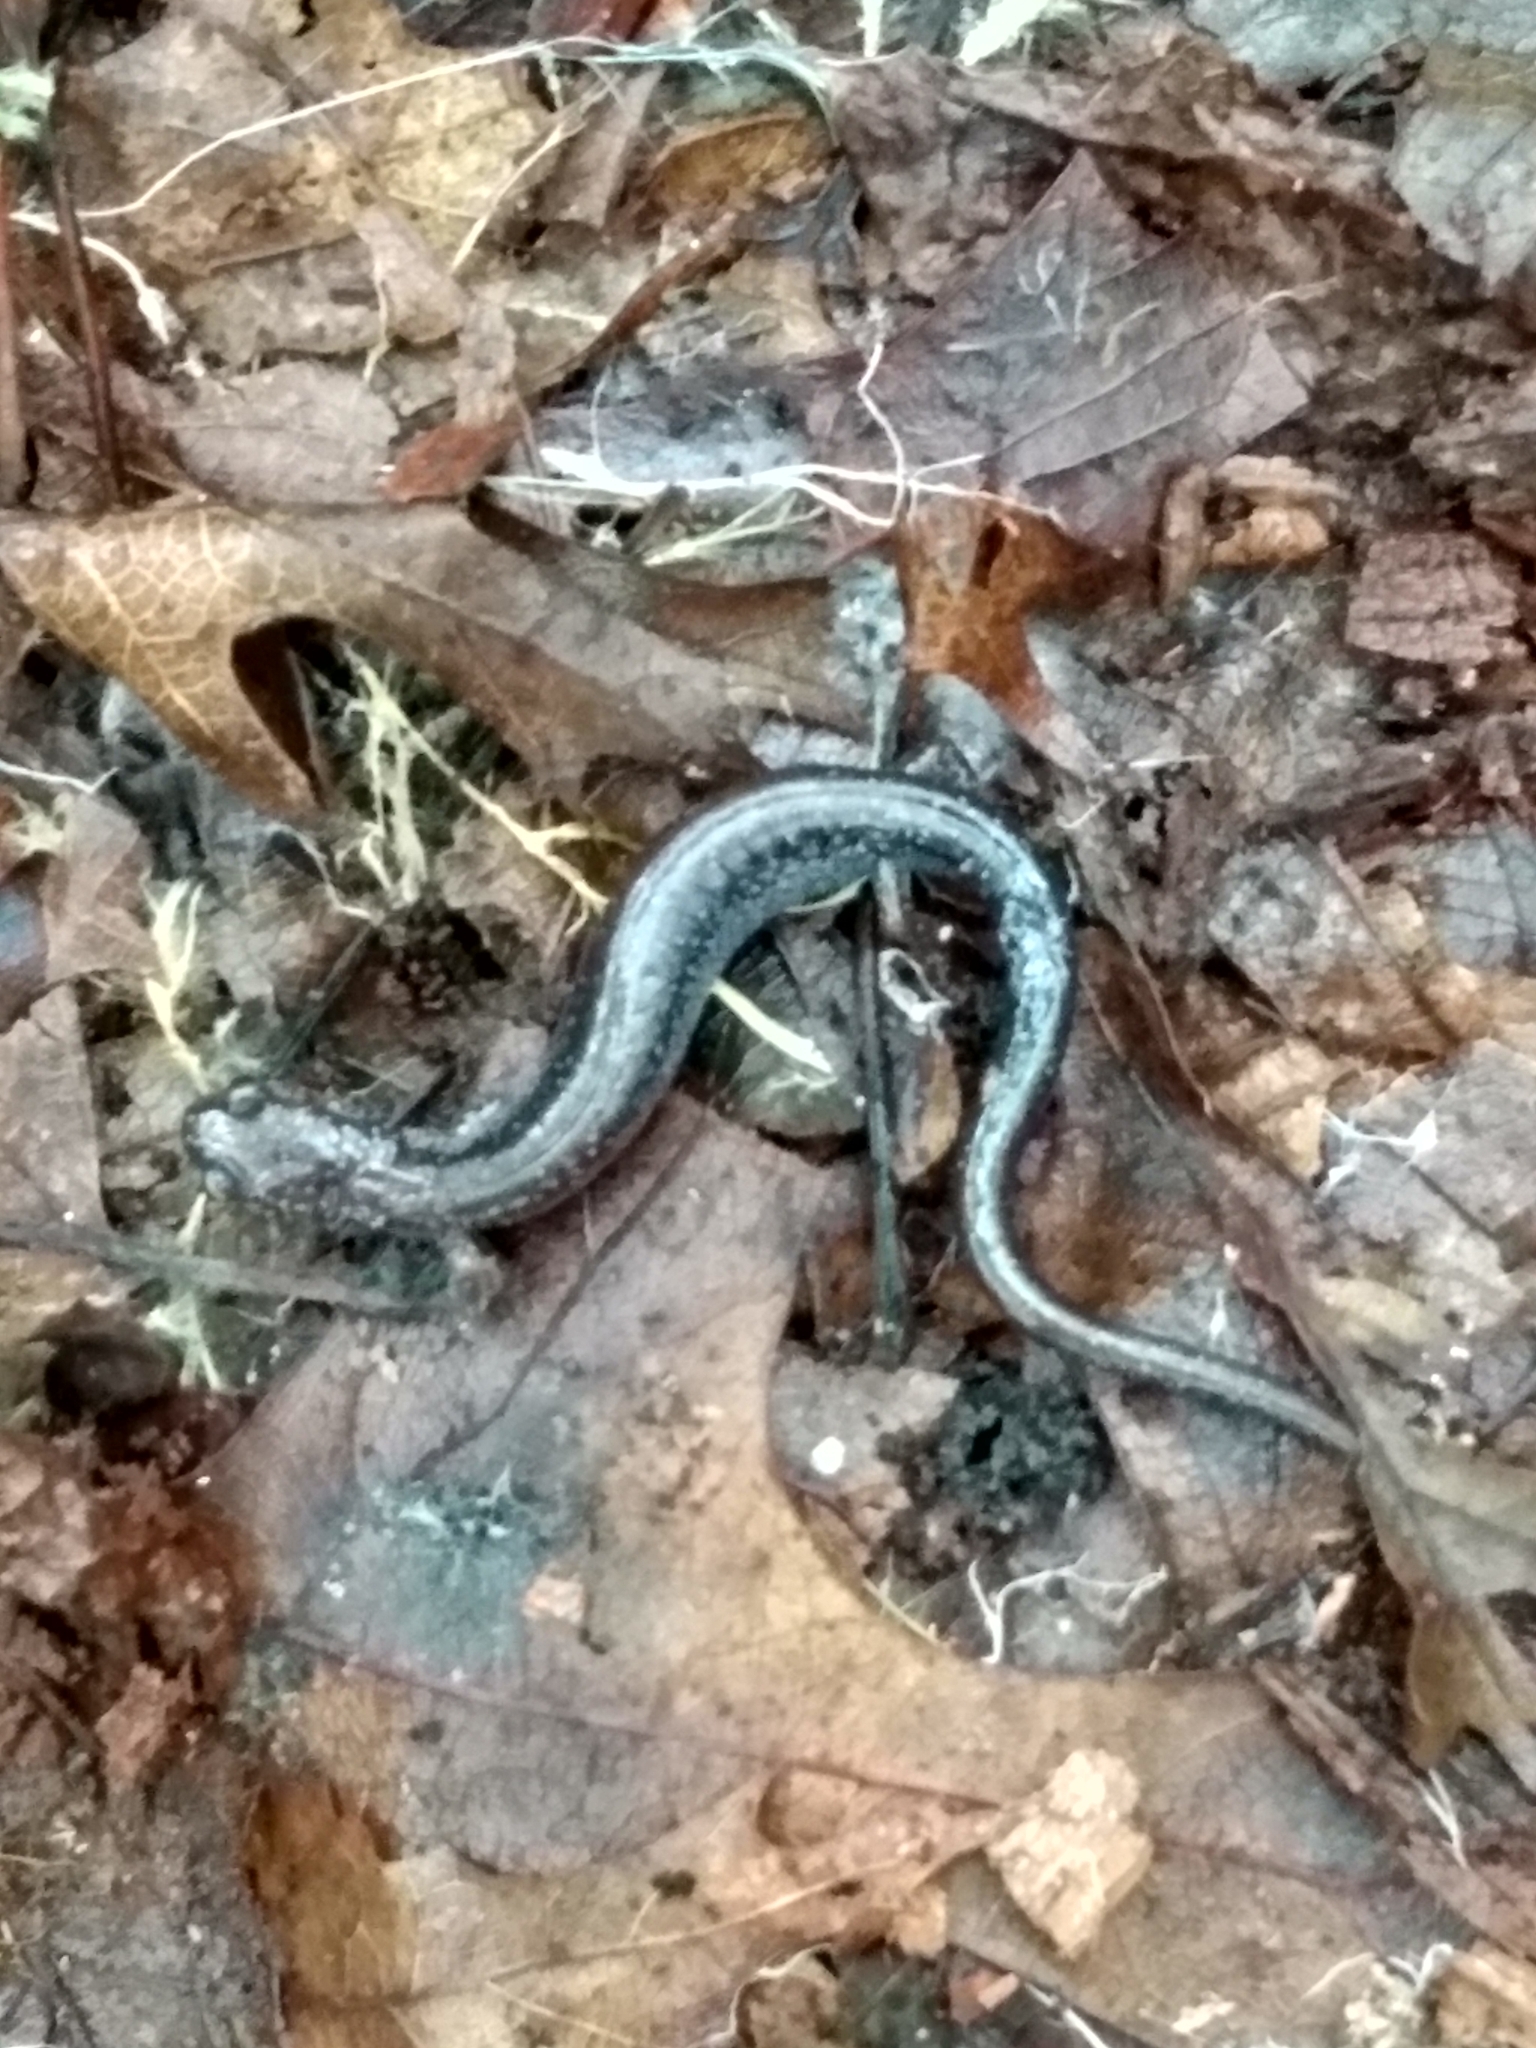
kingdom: Animalia
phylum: Chordata
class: Amphibia
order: Caudata
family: Plethodontidae
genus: Plethodon
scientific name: Plethodon cinereus
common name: Redback salamander
